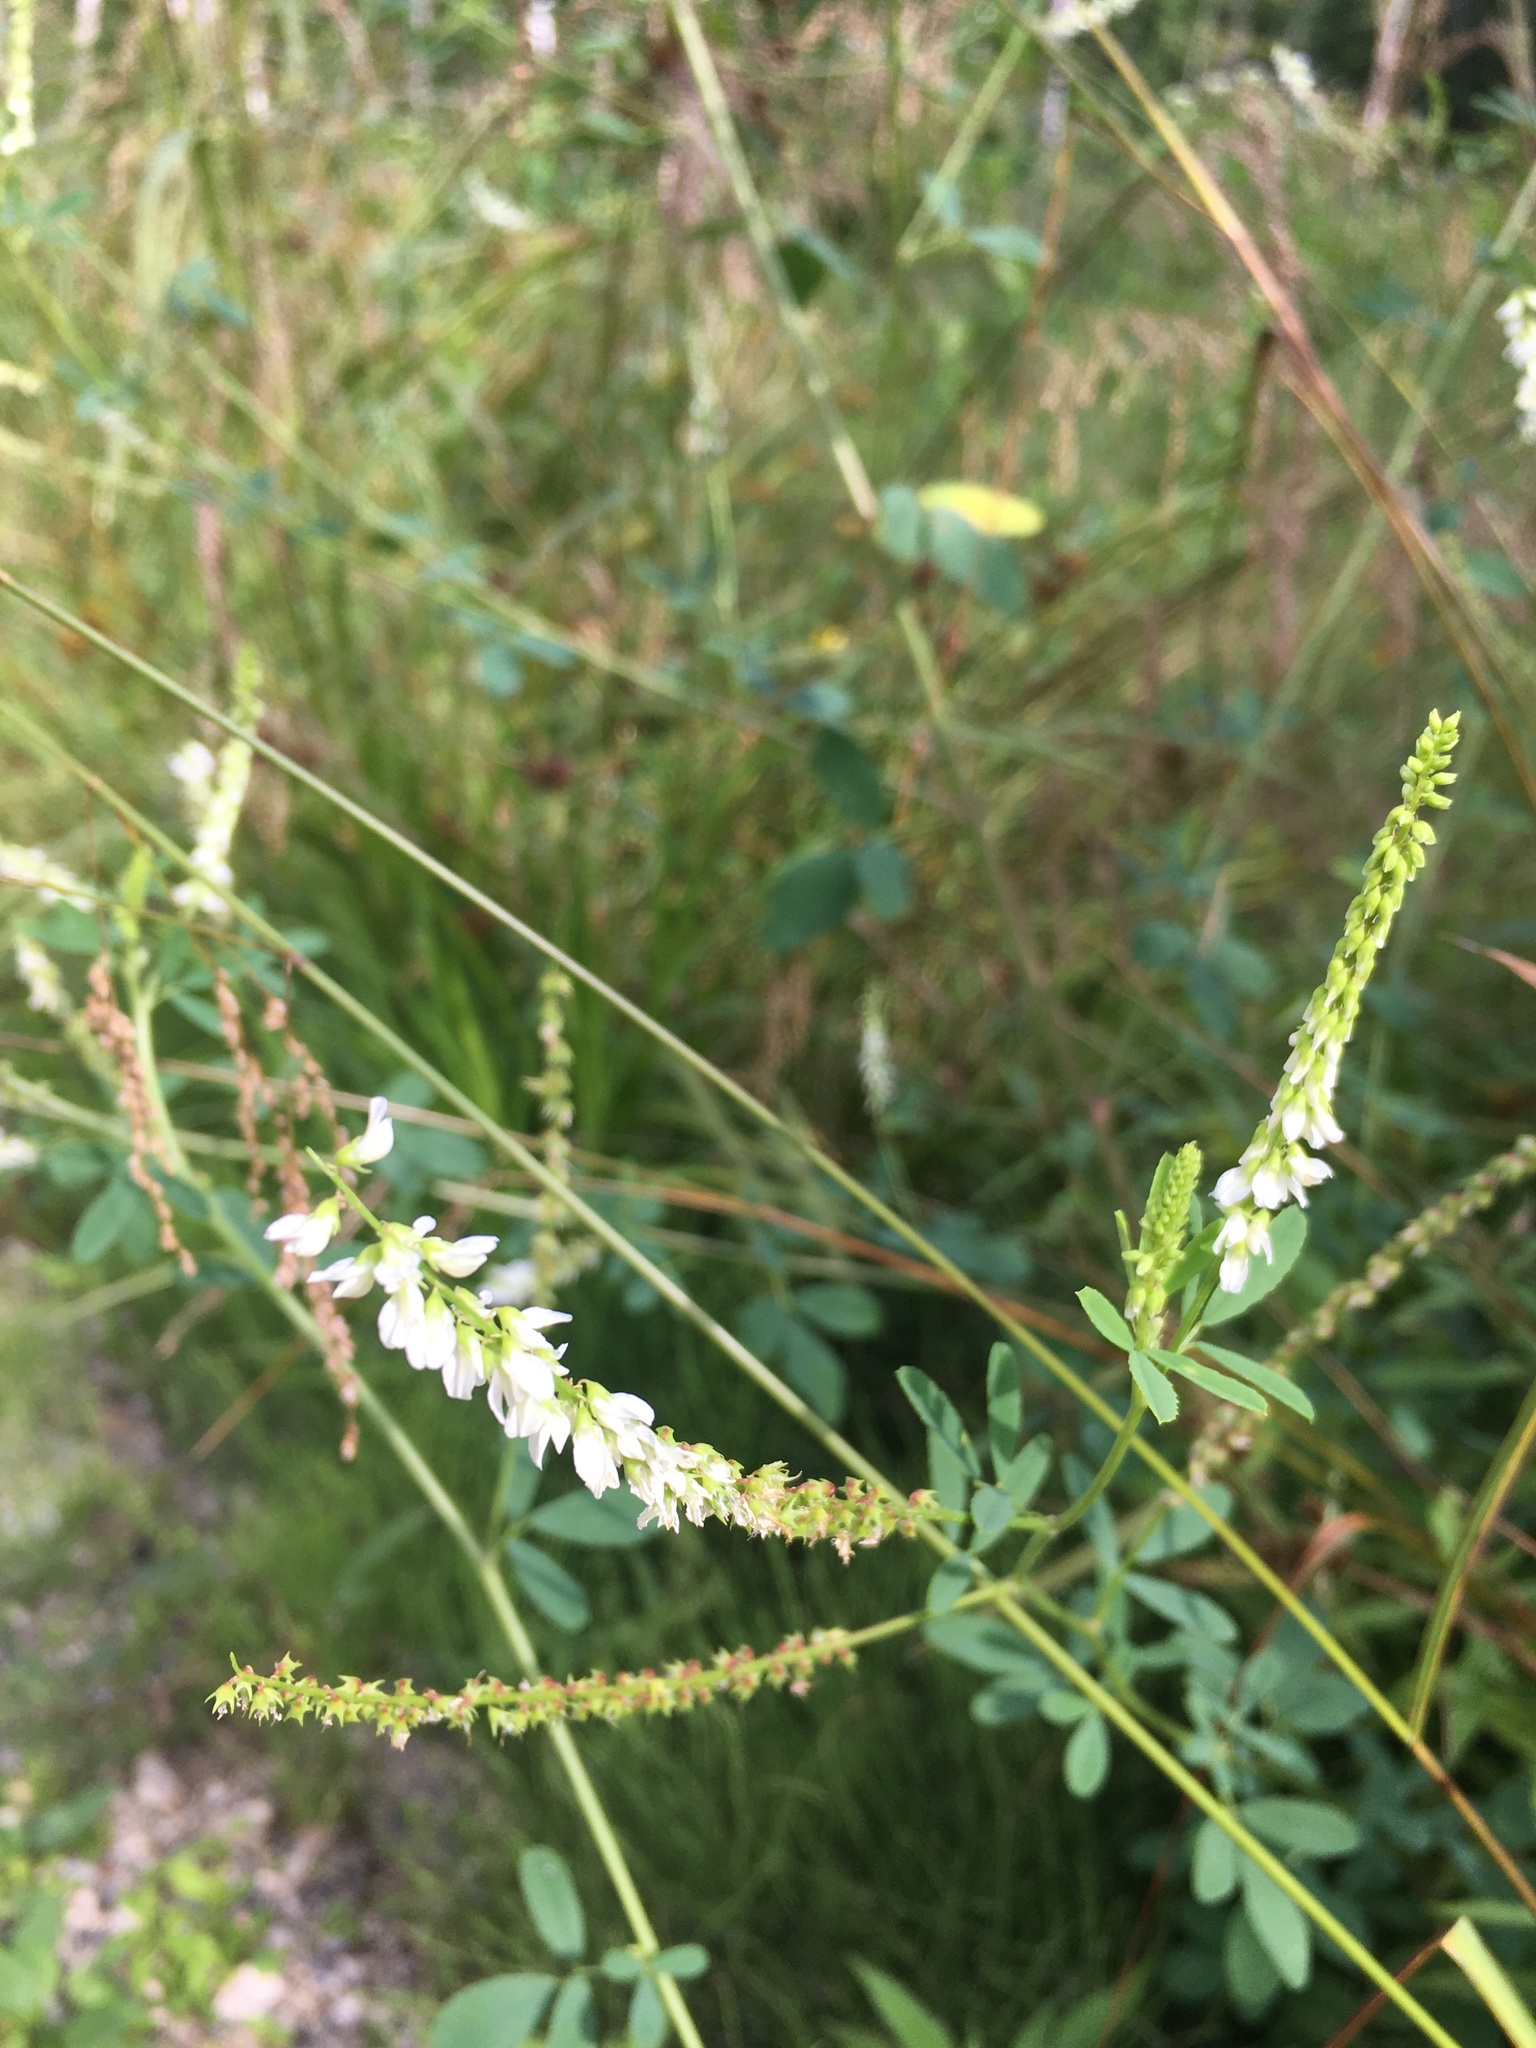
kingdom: Plantae
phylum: Tracheophyta
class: Magnoliopsida
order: Fabales
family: Fabaceae
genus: Melilotus
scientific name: Melilotus albus
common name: White melilot
